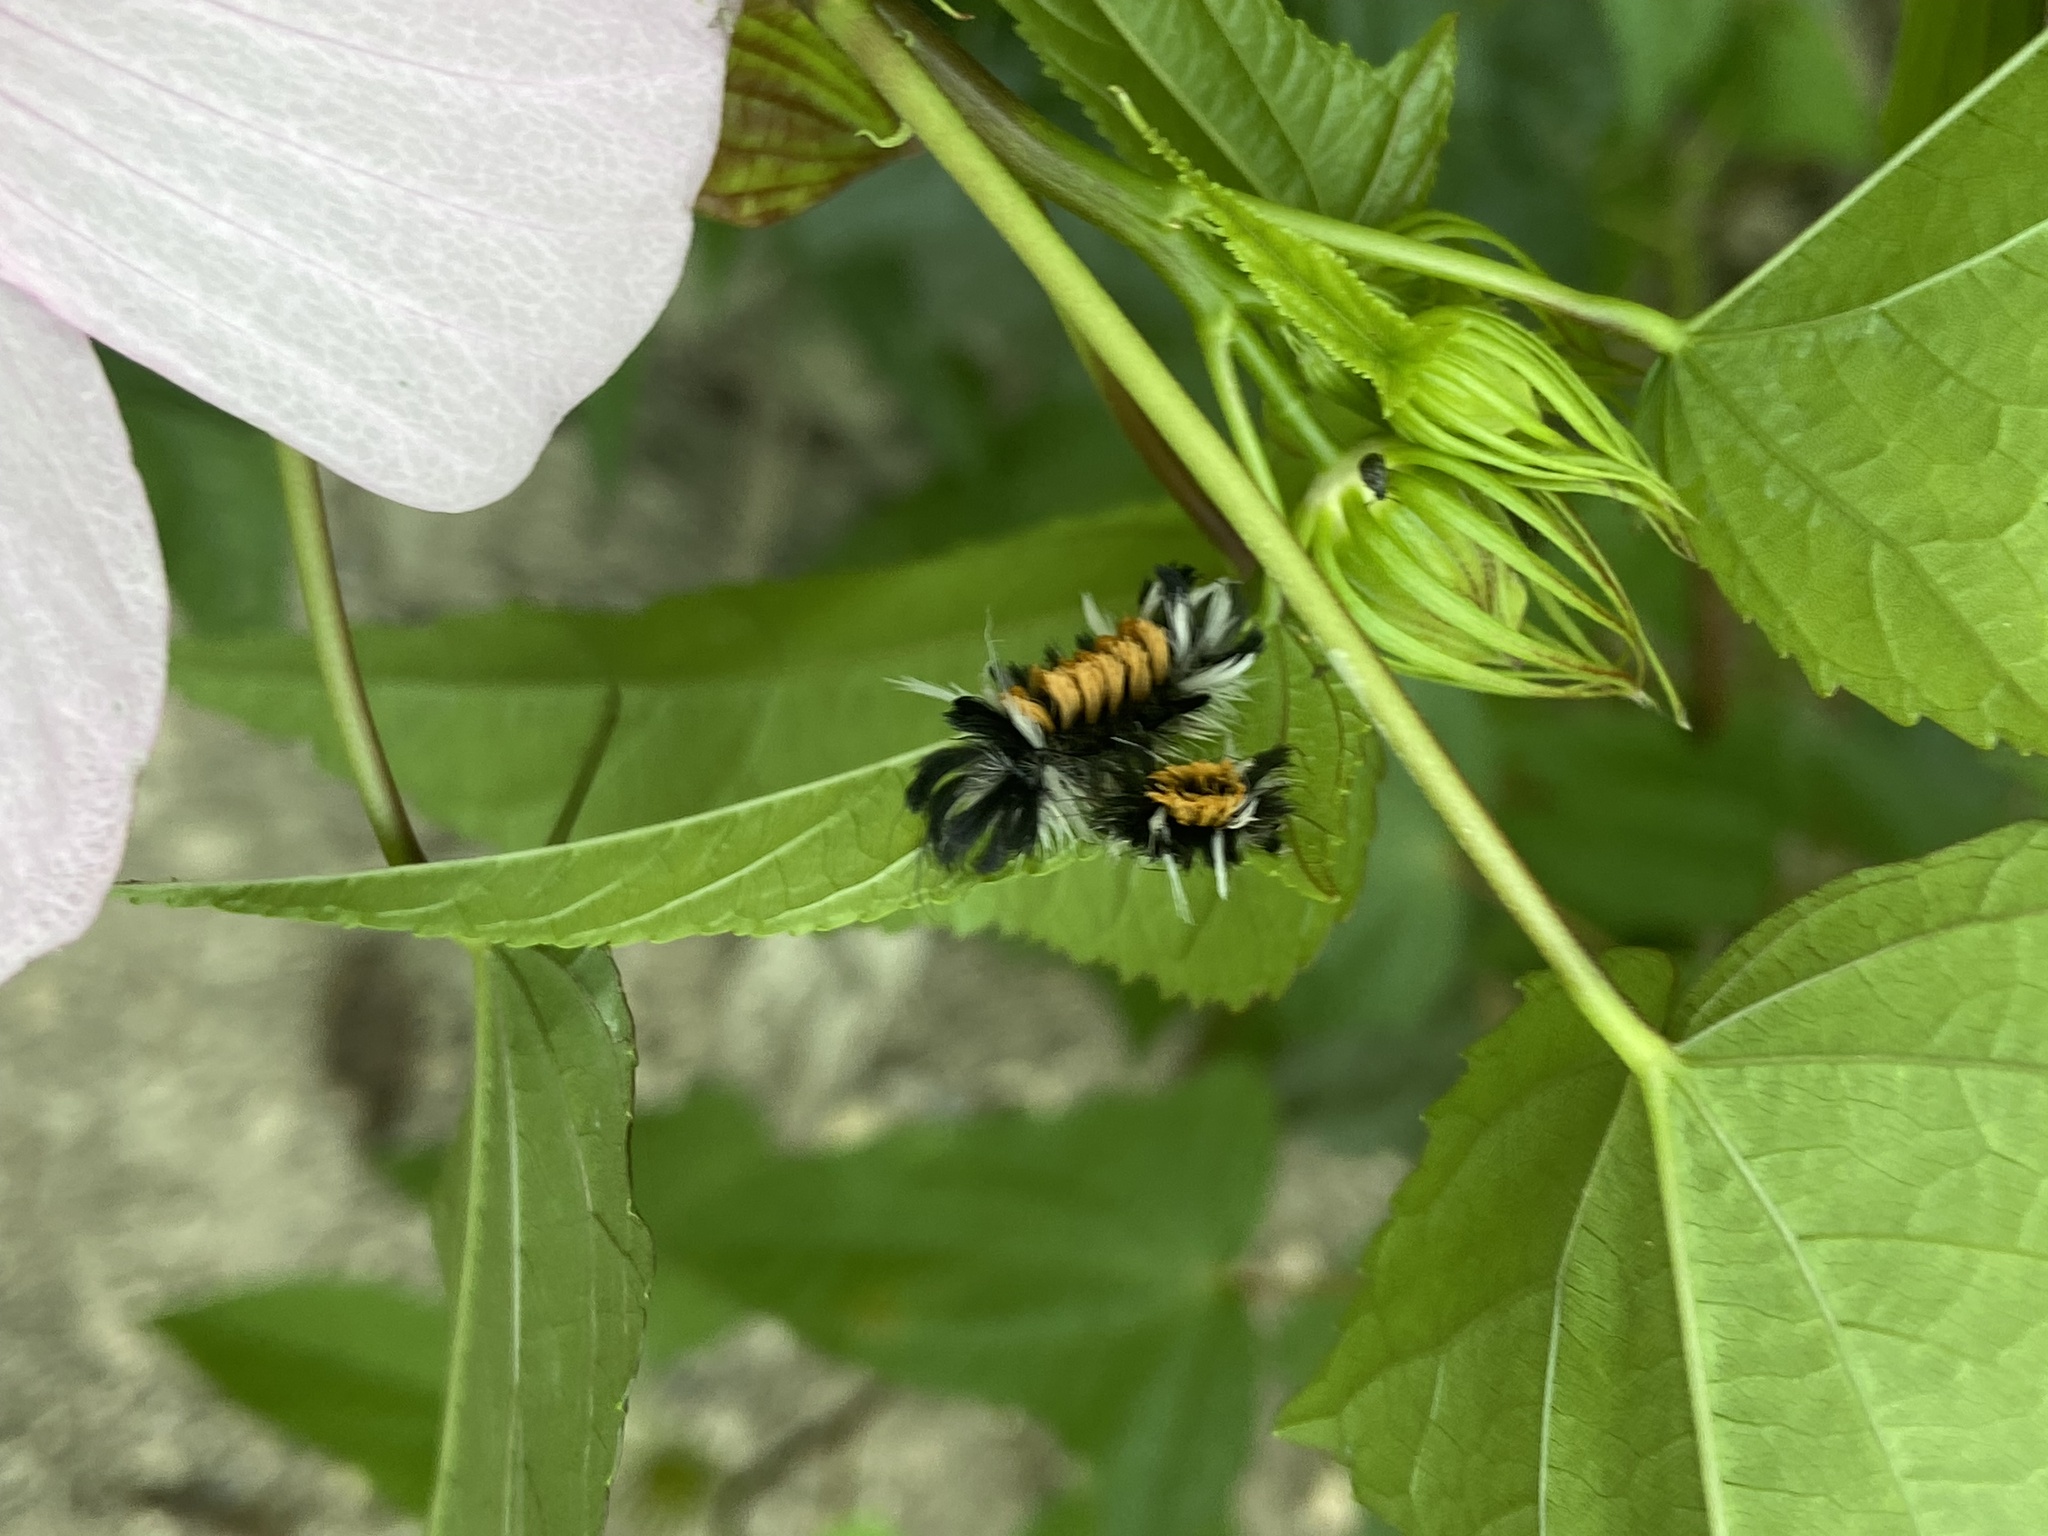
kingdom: Animalia
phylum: Arthropoda
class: Insecta
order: Lepidoptera
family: Erebidae
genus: Euchaetes
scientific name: Euchaetes egle
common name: Milkweed tussock moth
